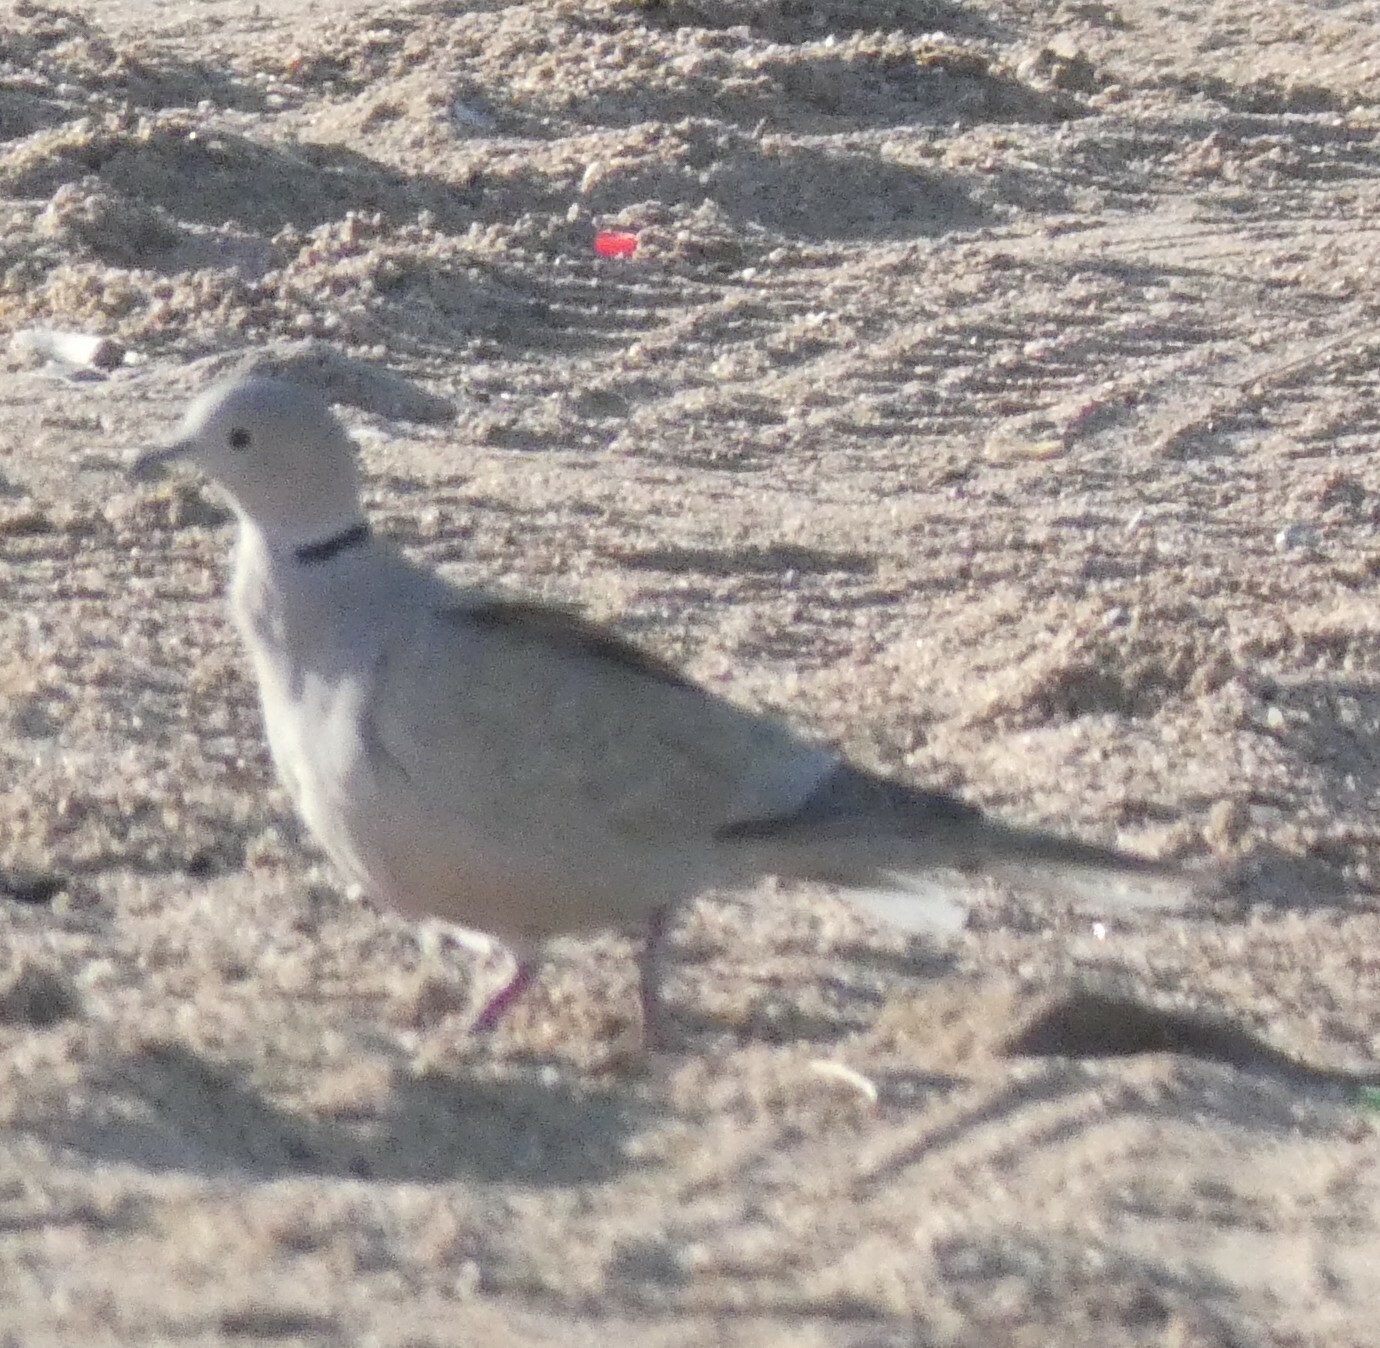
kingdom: Animalia
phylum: Chordata
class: Aves
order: Columbiformes
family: Columbidae
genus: Streptopelia
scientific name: Streptopelia decaocto
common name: Eurasian collared dove
